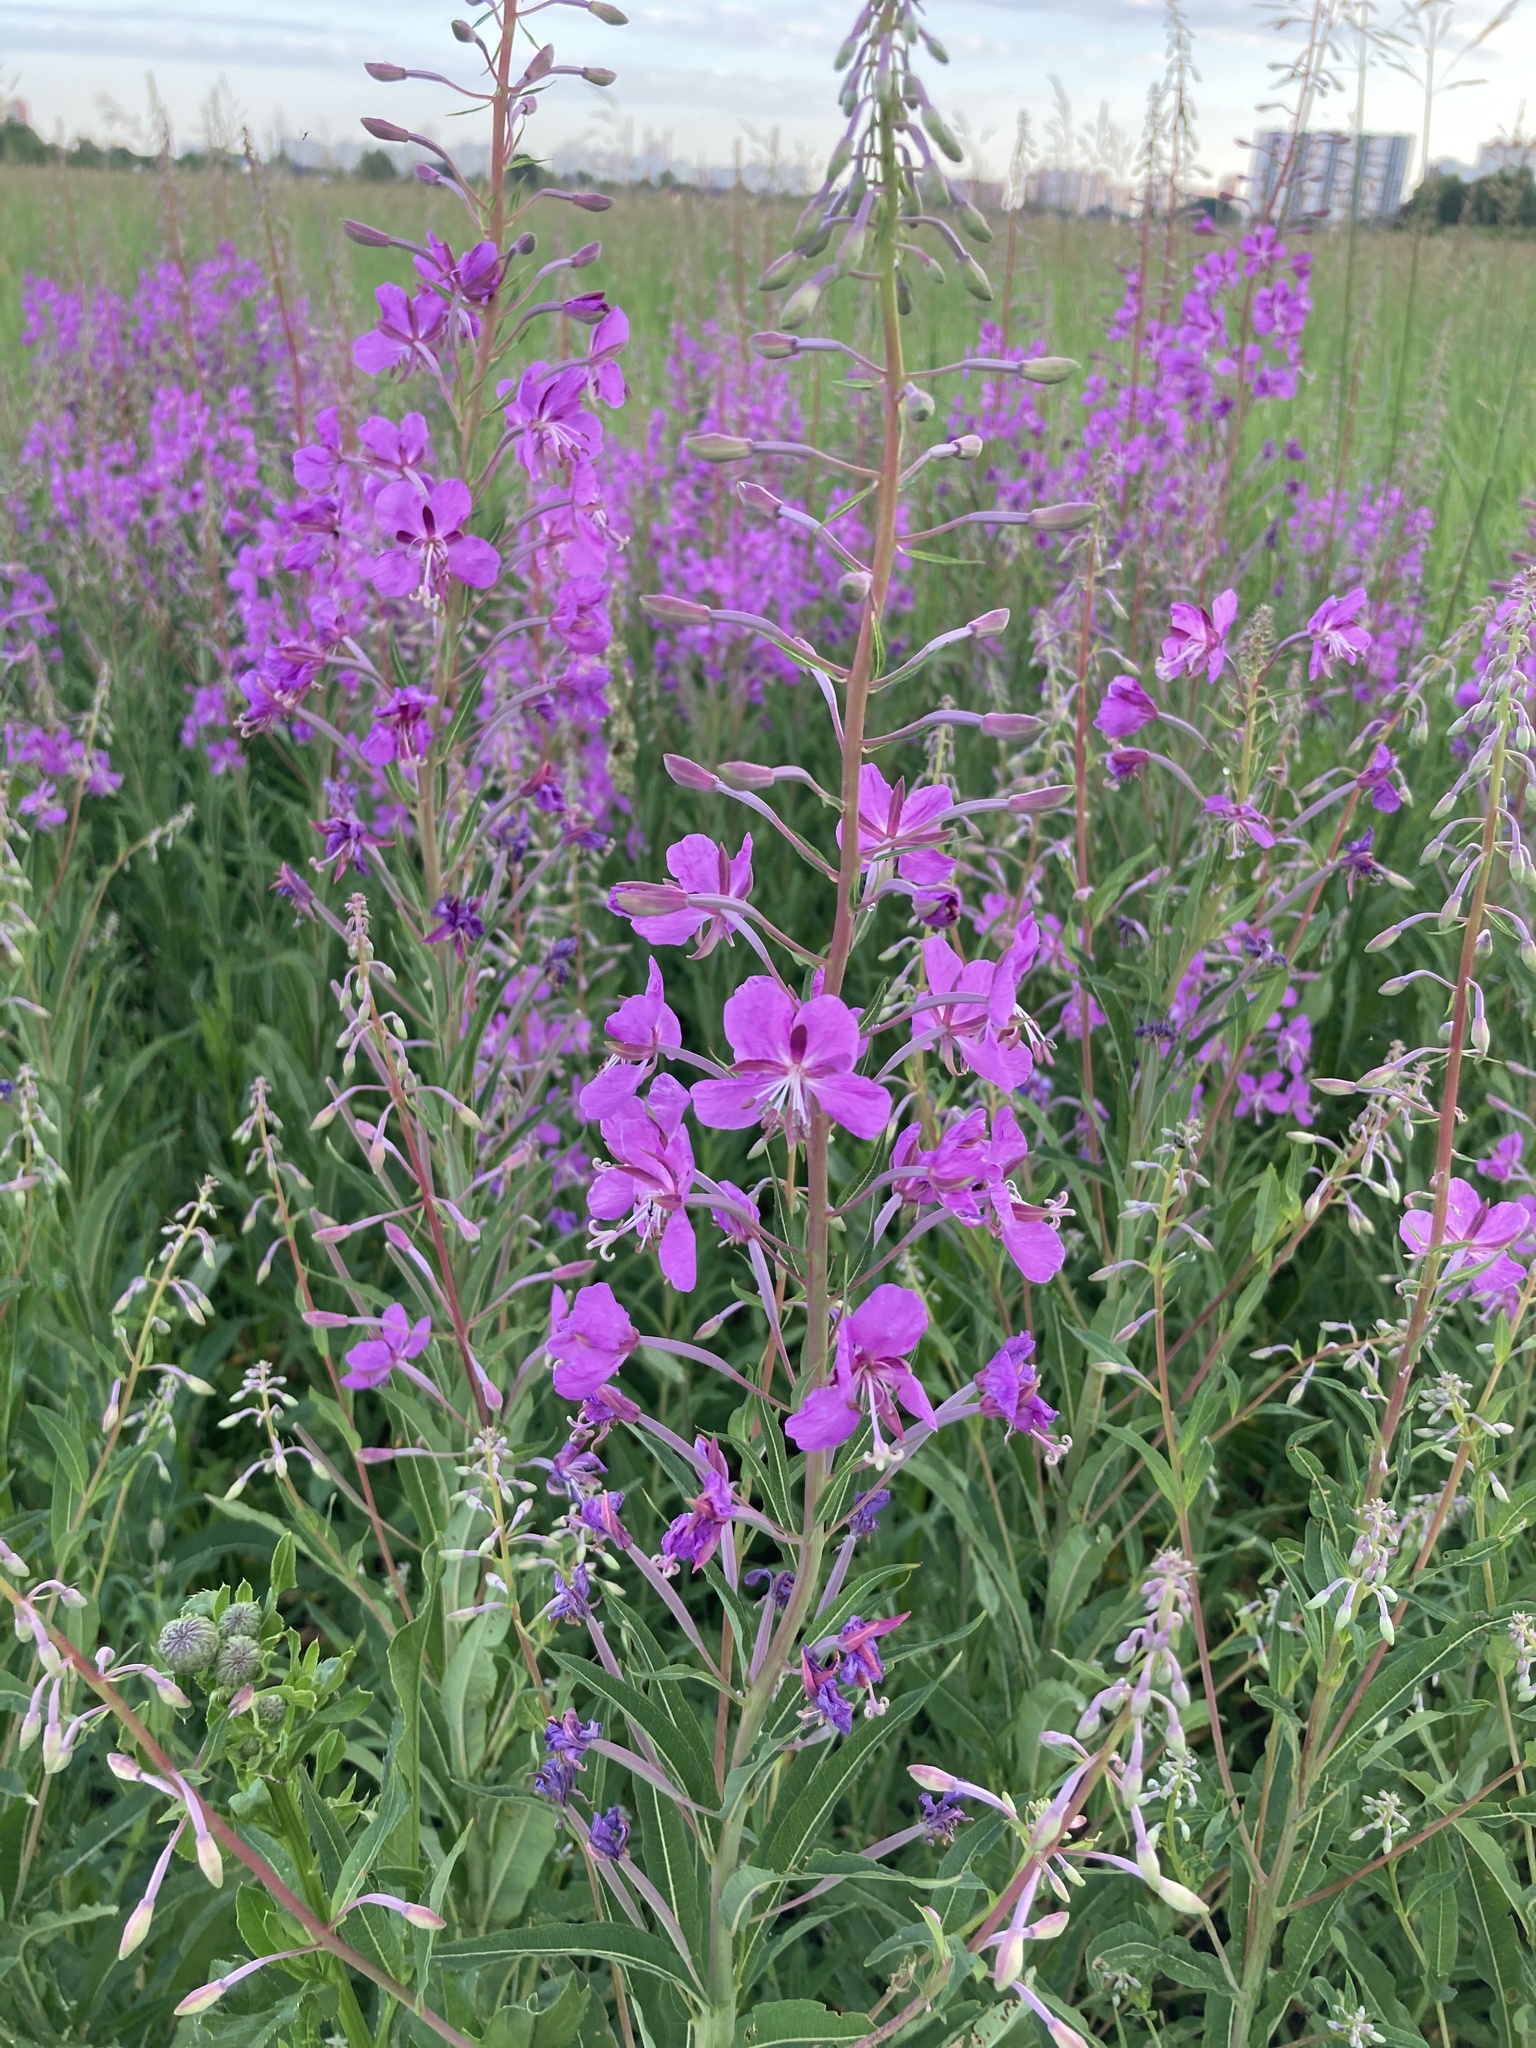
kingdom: Plantae
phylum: Tracheophyta
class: Magnoliopsida
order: Myrtales
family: Onagraceae
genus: Chamaenerion
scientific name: Chamaenerion angustifolium
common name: Fireweed
